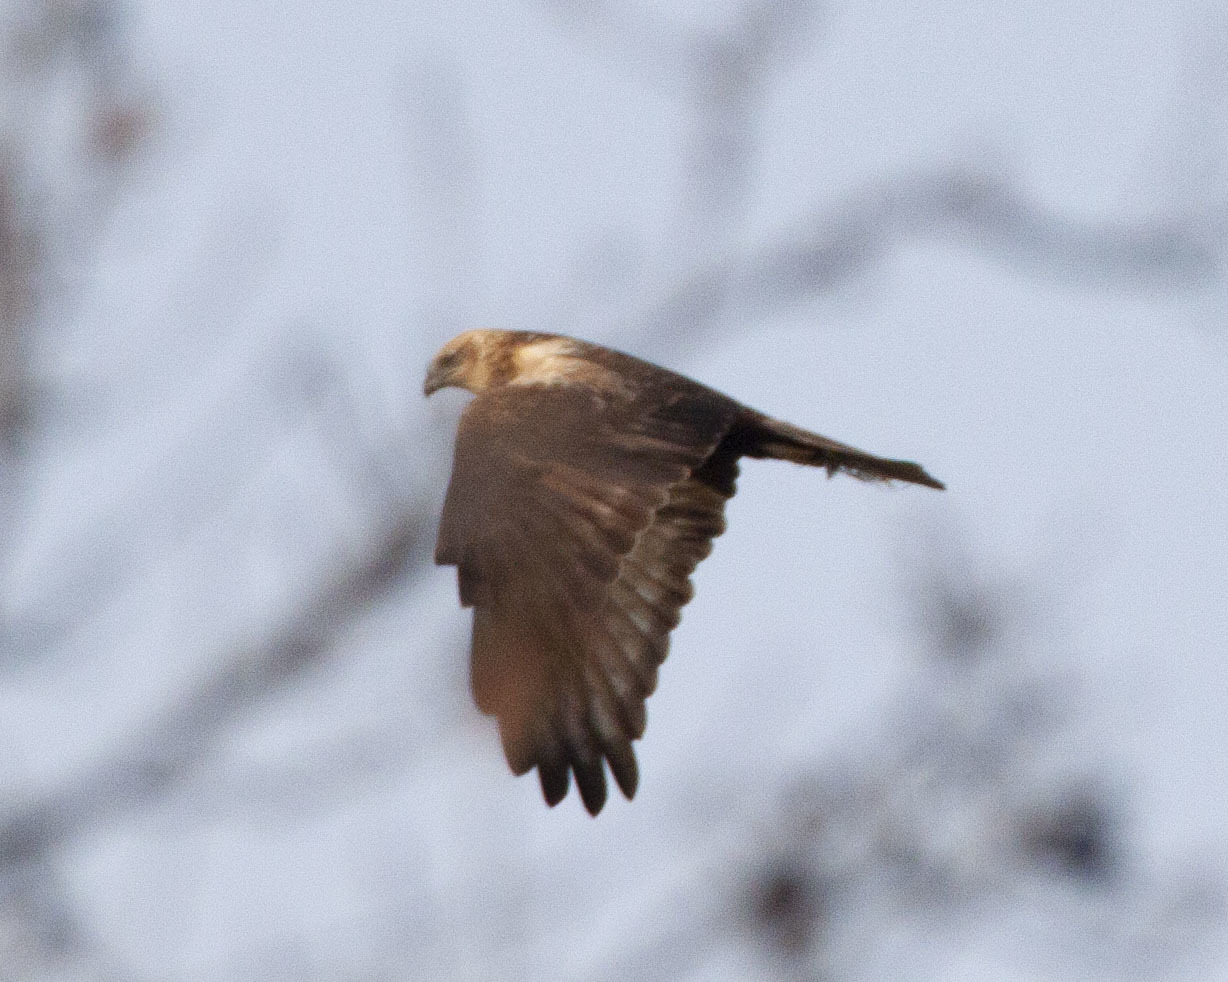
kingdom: Animalia
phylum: Chordata
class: Aves
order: Accipitriformes
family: Accipitridae
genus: Circus
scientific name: Circus aeruginosus
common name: Western marsh harrier
